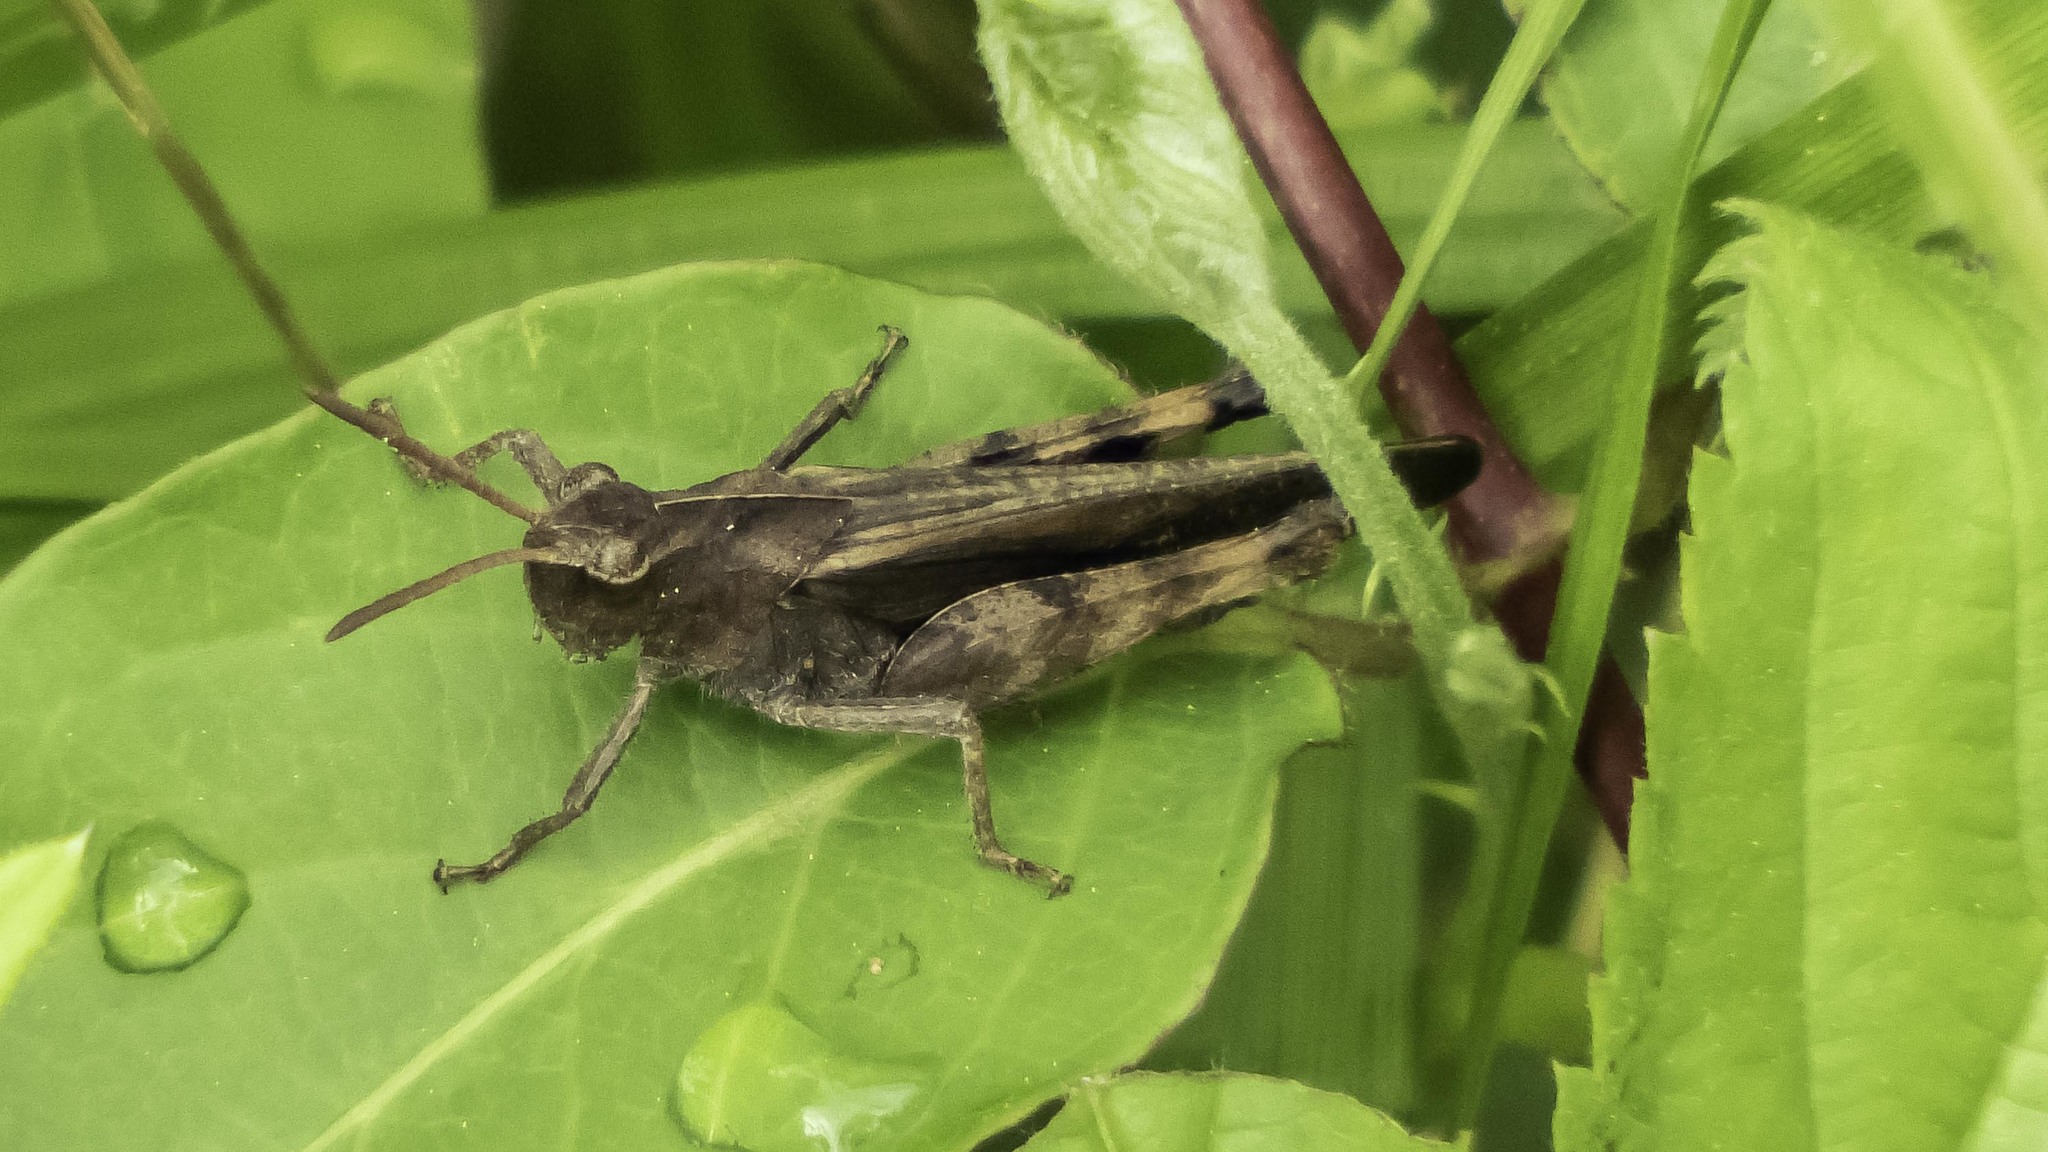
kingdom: Animalia
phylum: Arthropoda
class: Insecta
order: Orthoptera
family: Acrididae
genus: Chortophaga
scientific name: Chortophaga viridifasciata
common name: Green-striped grasshopper
